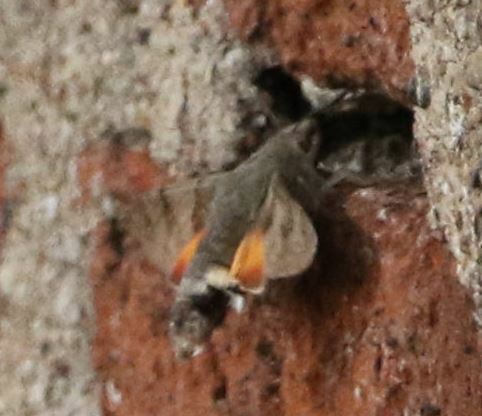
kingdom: Animalia
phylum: Arthropoda
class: Insecta
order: Lepidoptera
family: Sphingidae
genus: Macroglossum
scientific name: Macroglossum stellatarum
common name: Humming-bird hawk-moth
